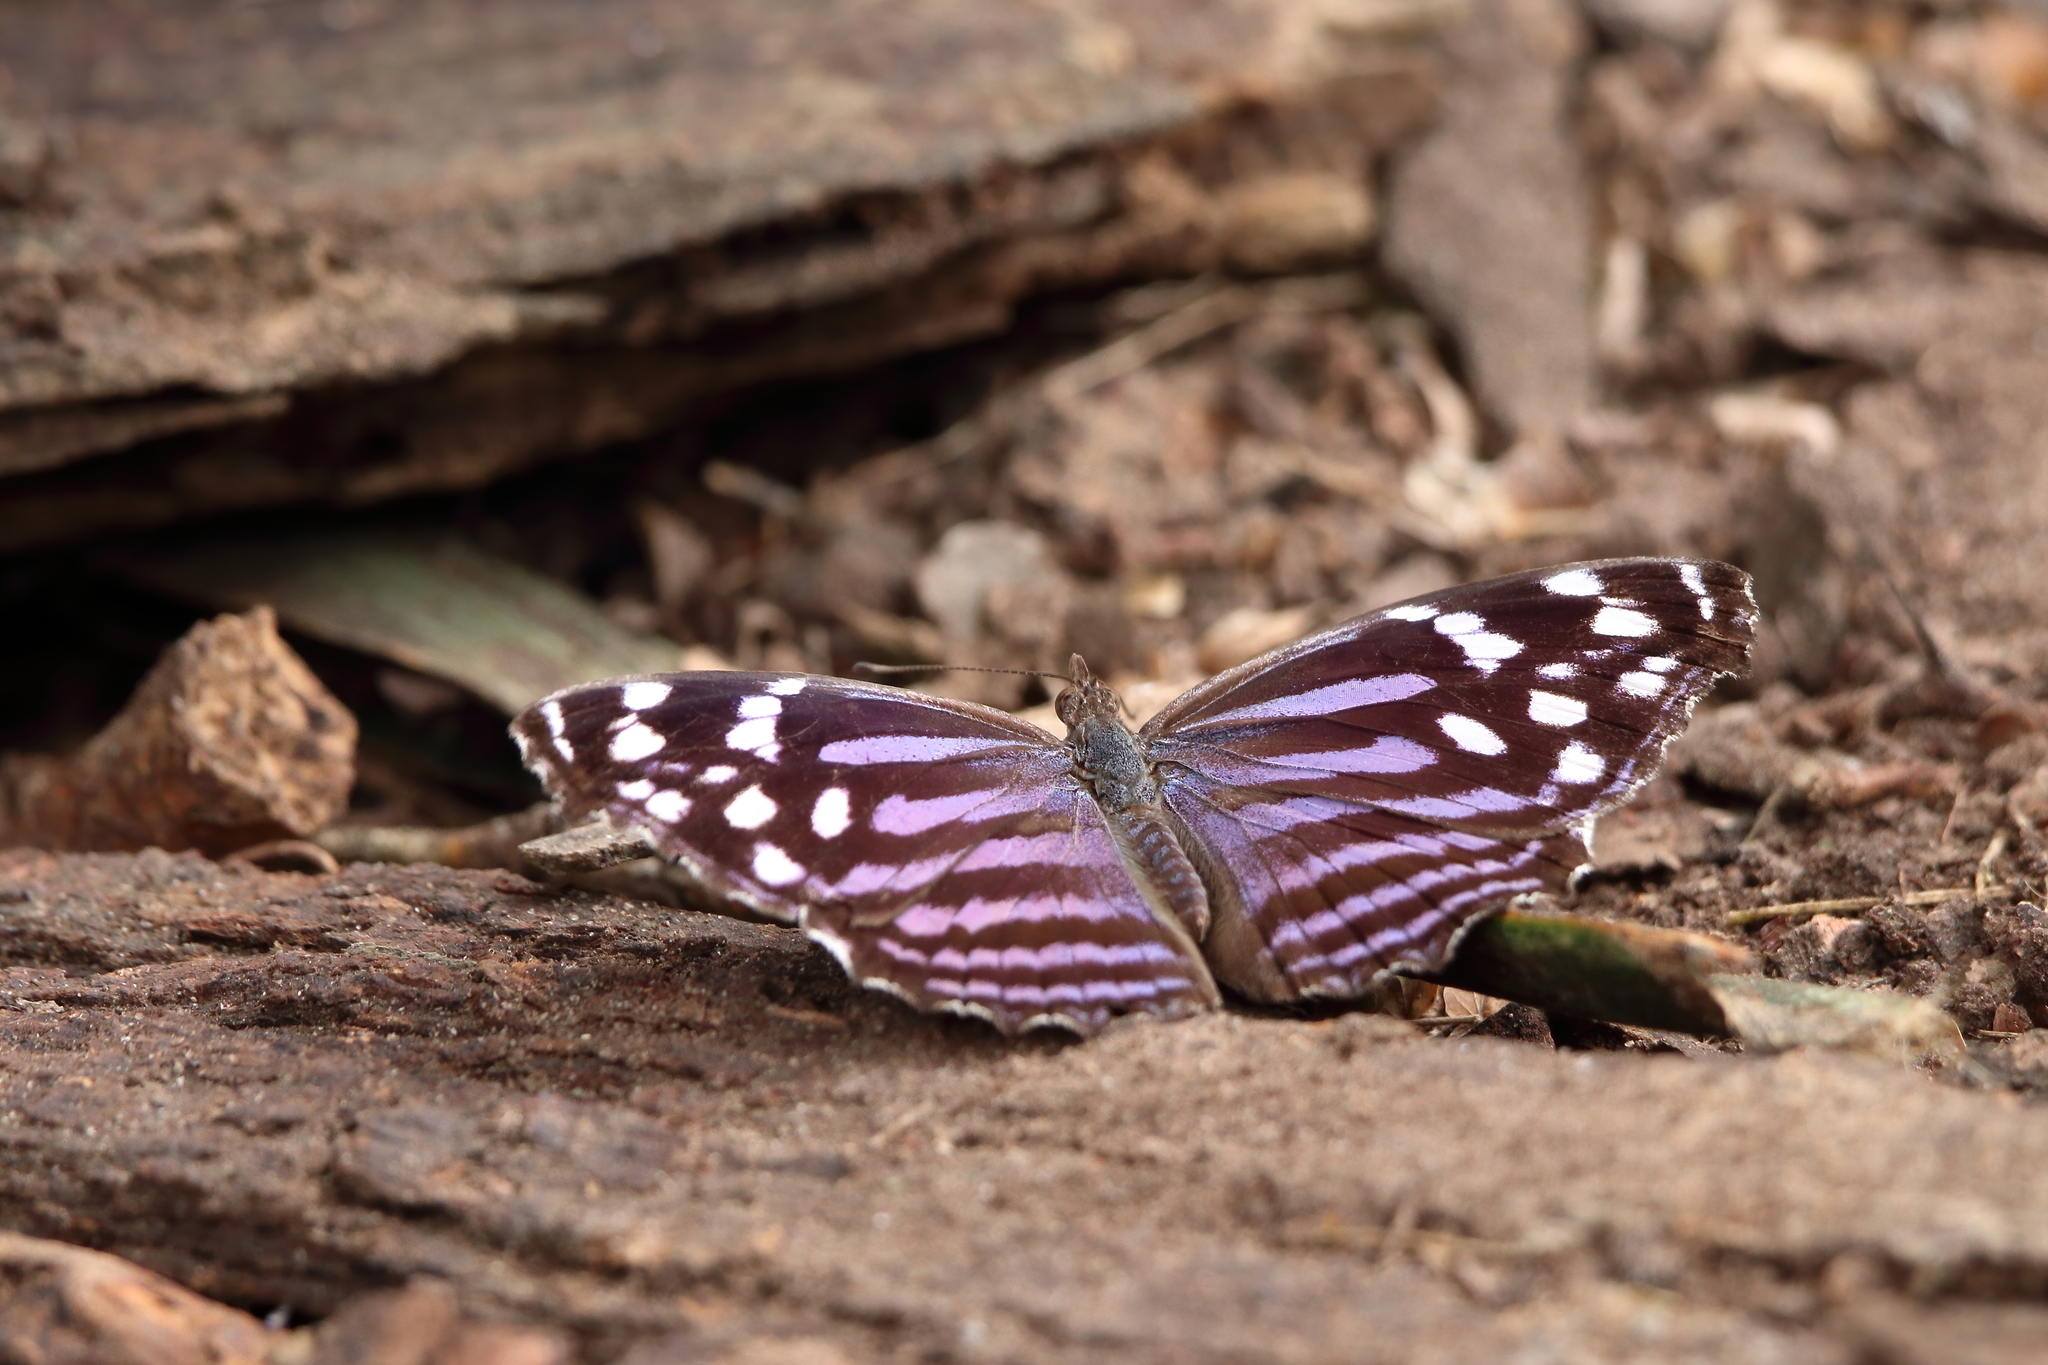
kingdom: Animalia
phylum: Arthropoda
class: Insecta
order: Lepidoptera
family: Nymphalidae
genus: Myscelia
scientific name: Myscelia ethusa
